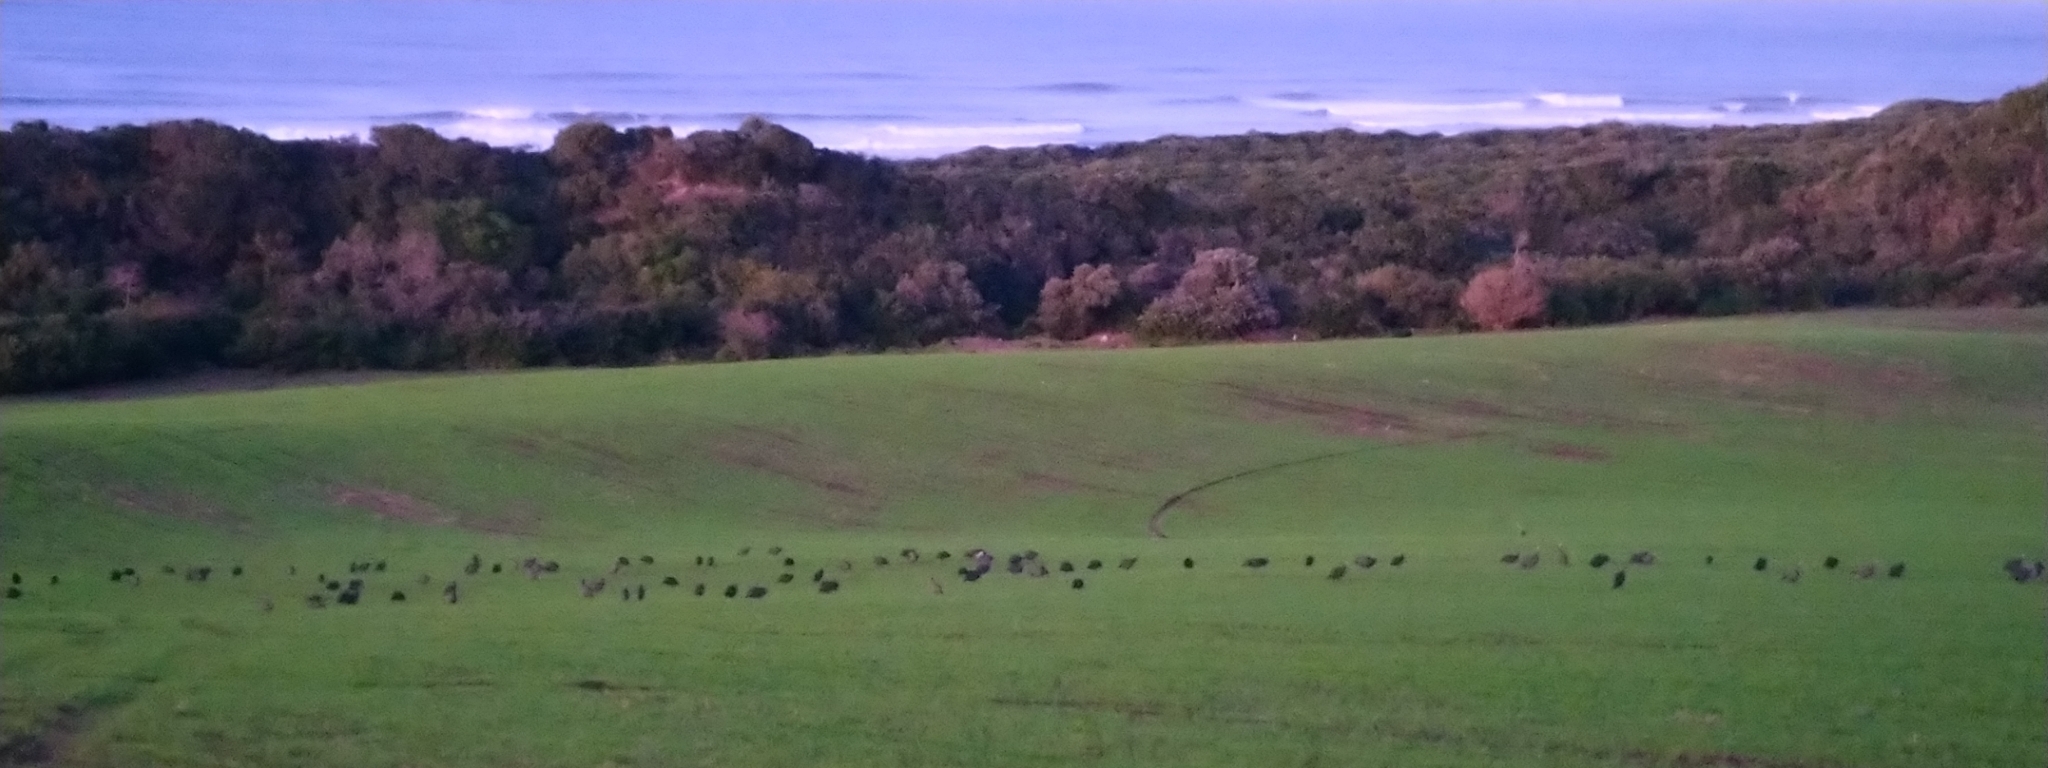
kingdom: Animalia
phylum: Chordata
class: Aves
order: Galliformes
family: Numididae
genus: Numida
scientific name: Numida meleagris
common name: Helmeted guineafowl
